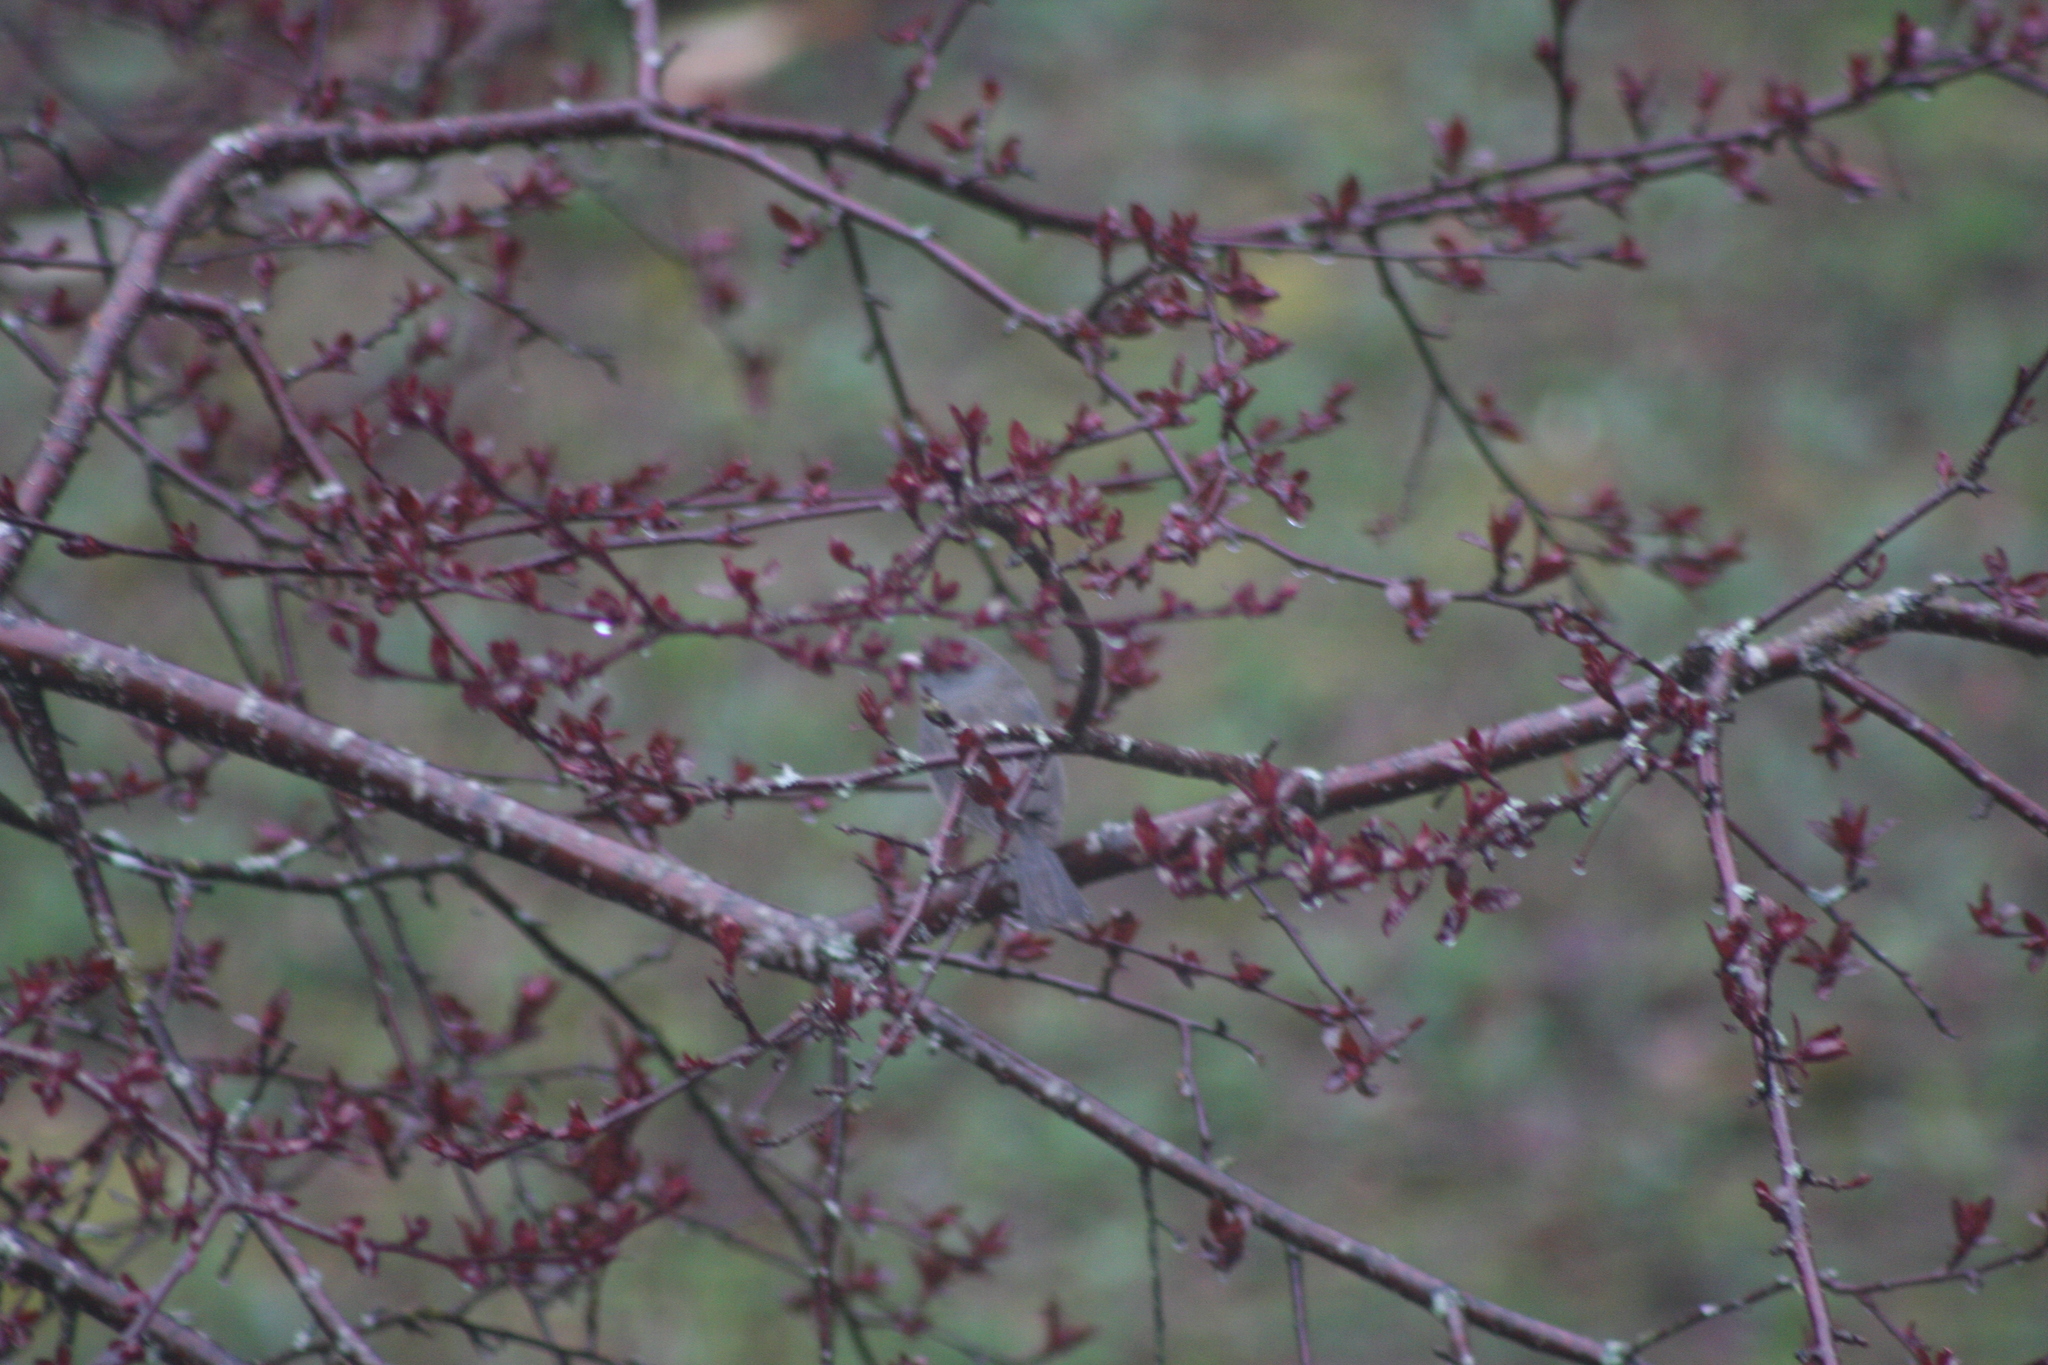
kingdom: Animalia
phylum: Chordata
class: Aves
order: Passeriformes
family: Passerellidae
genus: Junco
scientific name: Junco hyemalis
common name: Dark-eyed junco
